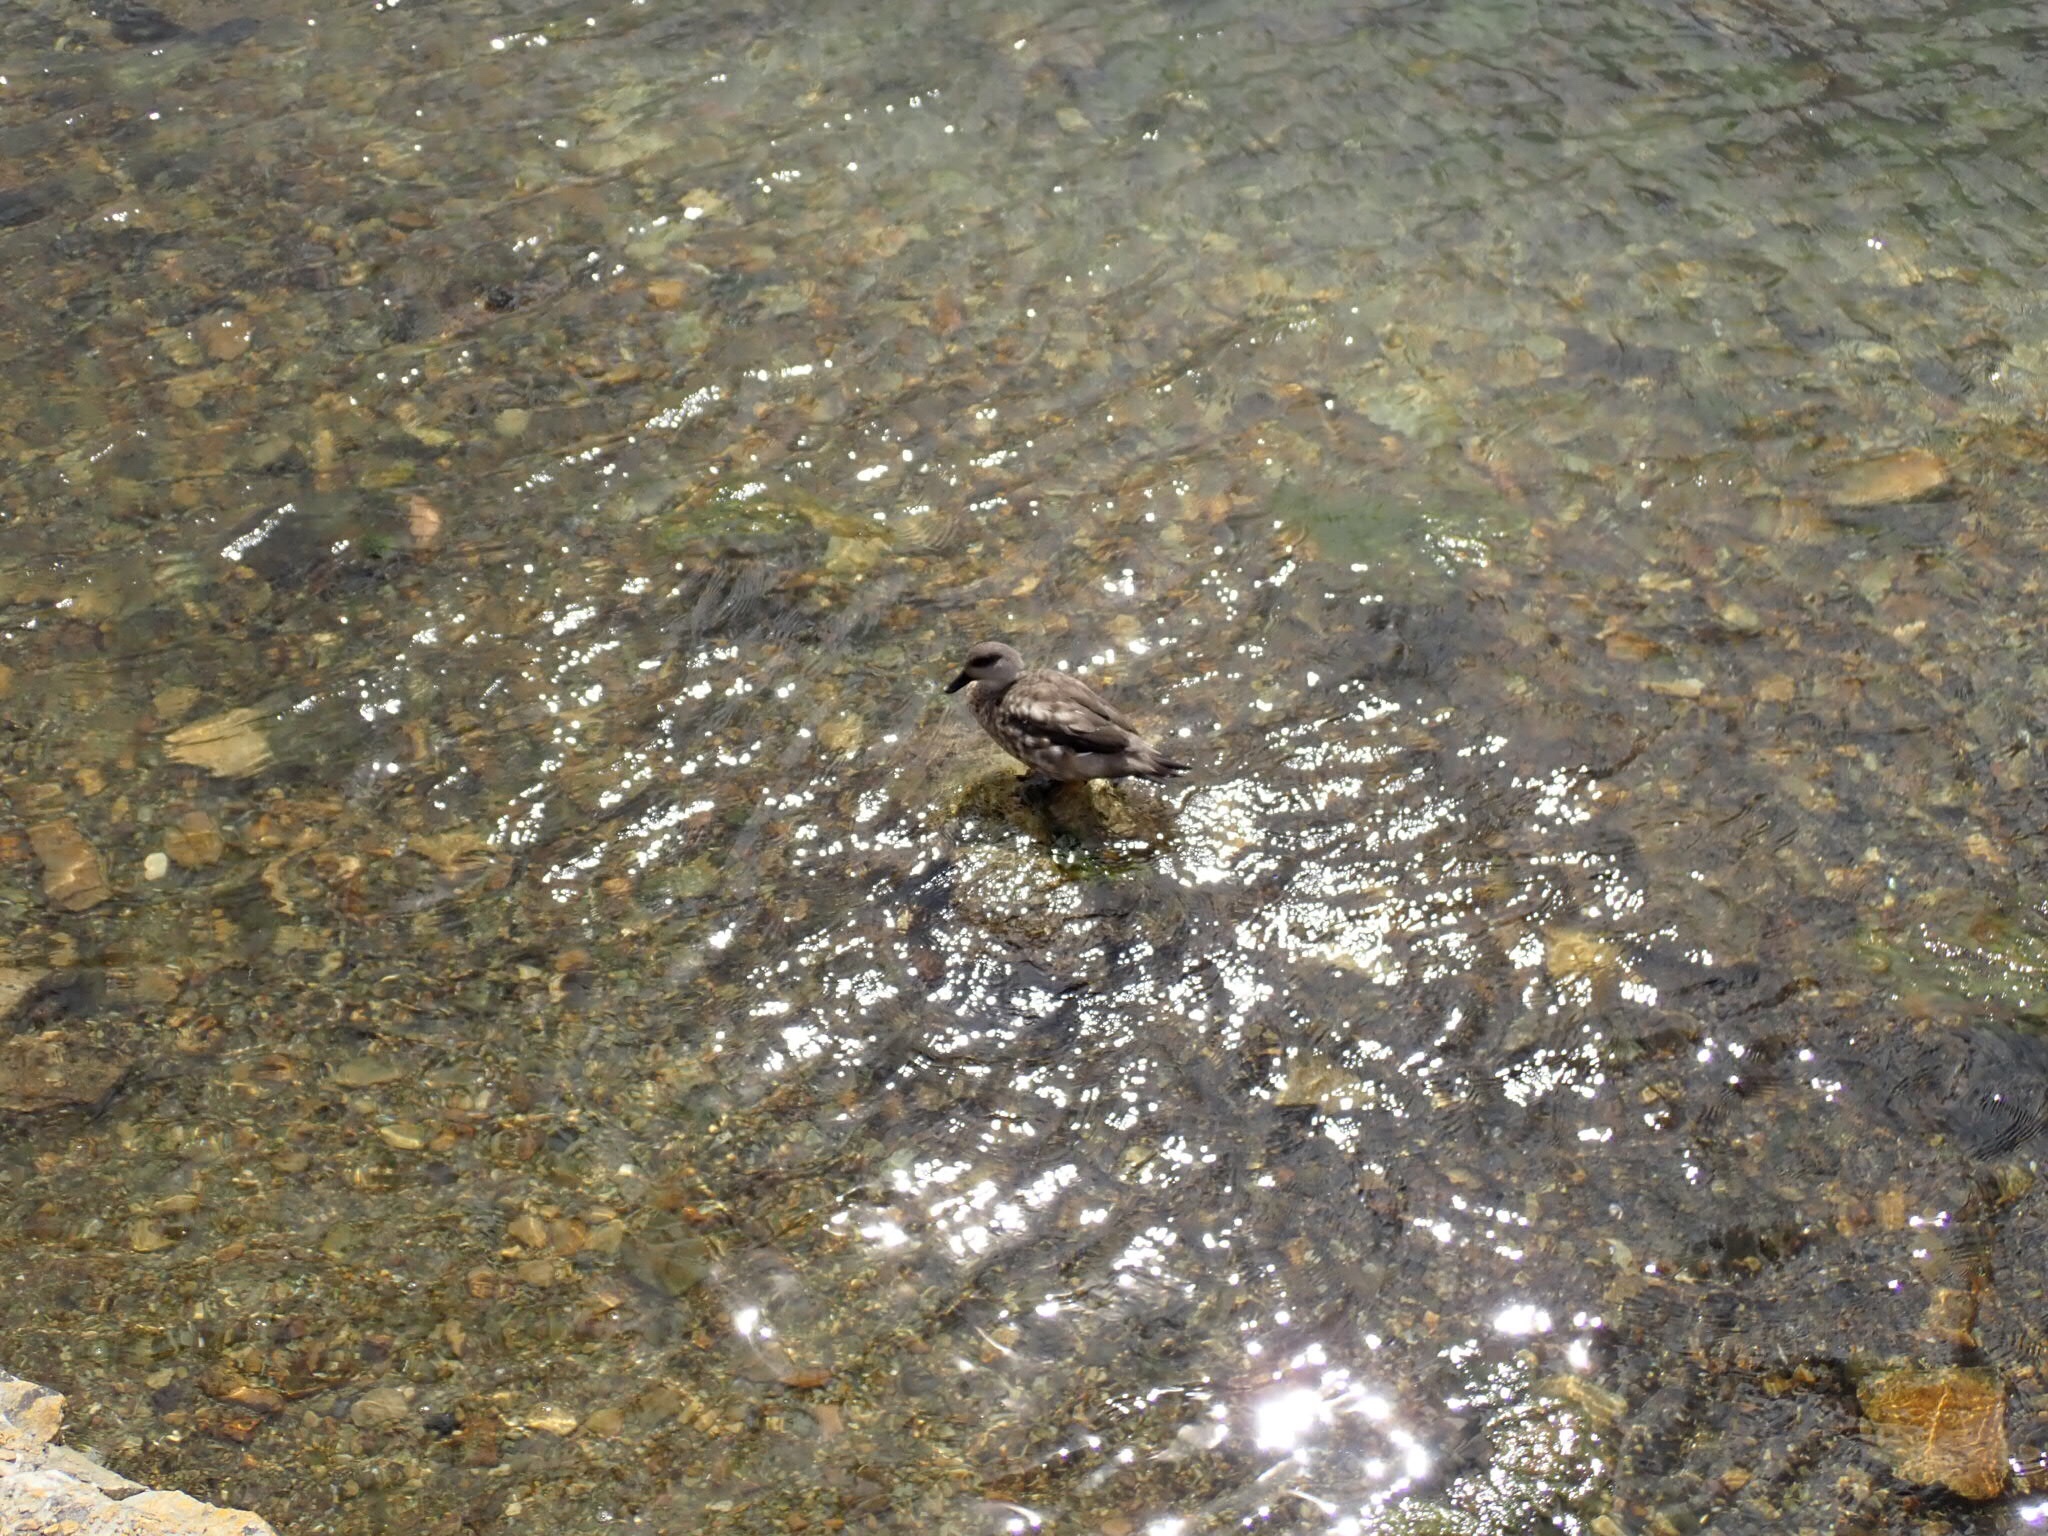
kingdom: Animalia
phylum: Chordata
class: Aves
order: Anseriformes
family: Anatidae
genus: Lophonetta
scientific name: Lophonetta specularioides
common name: Crested duck
